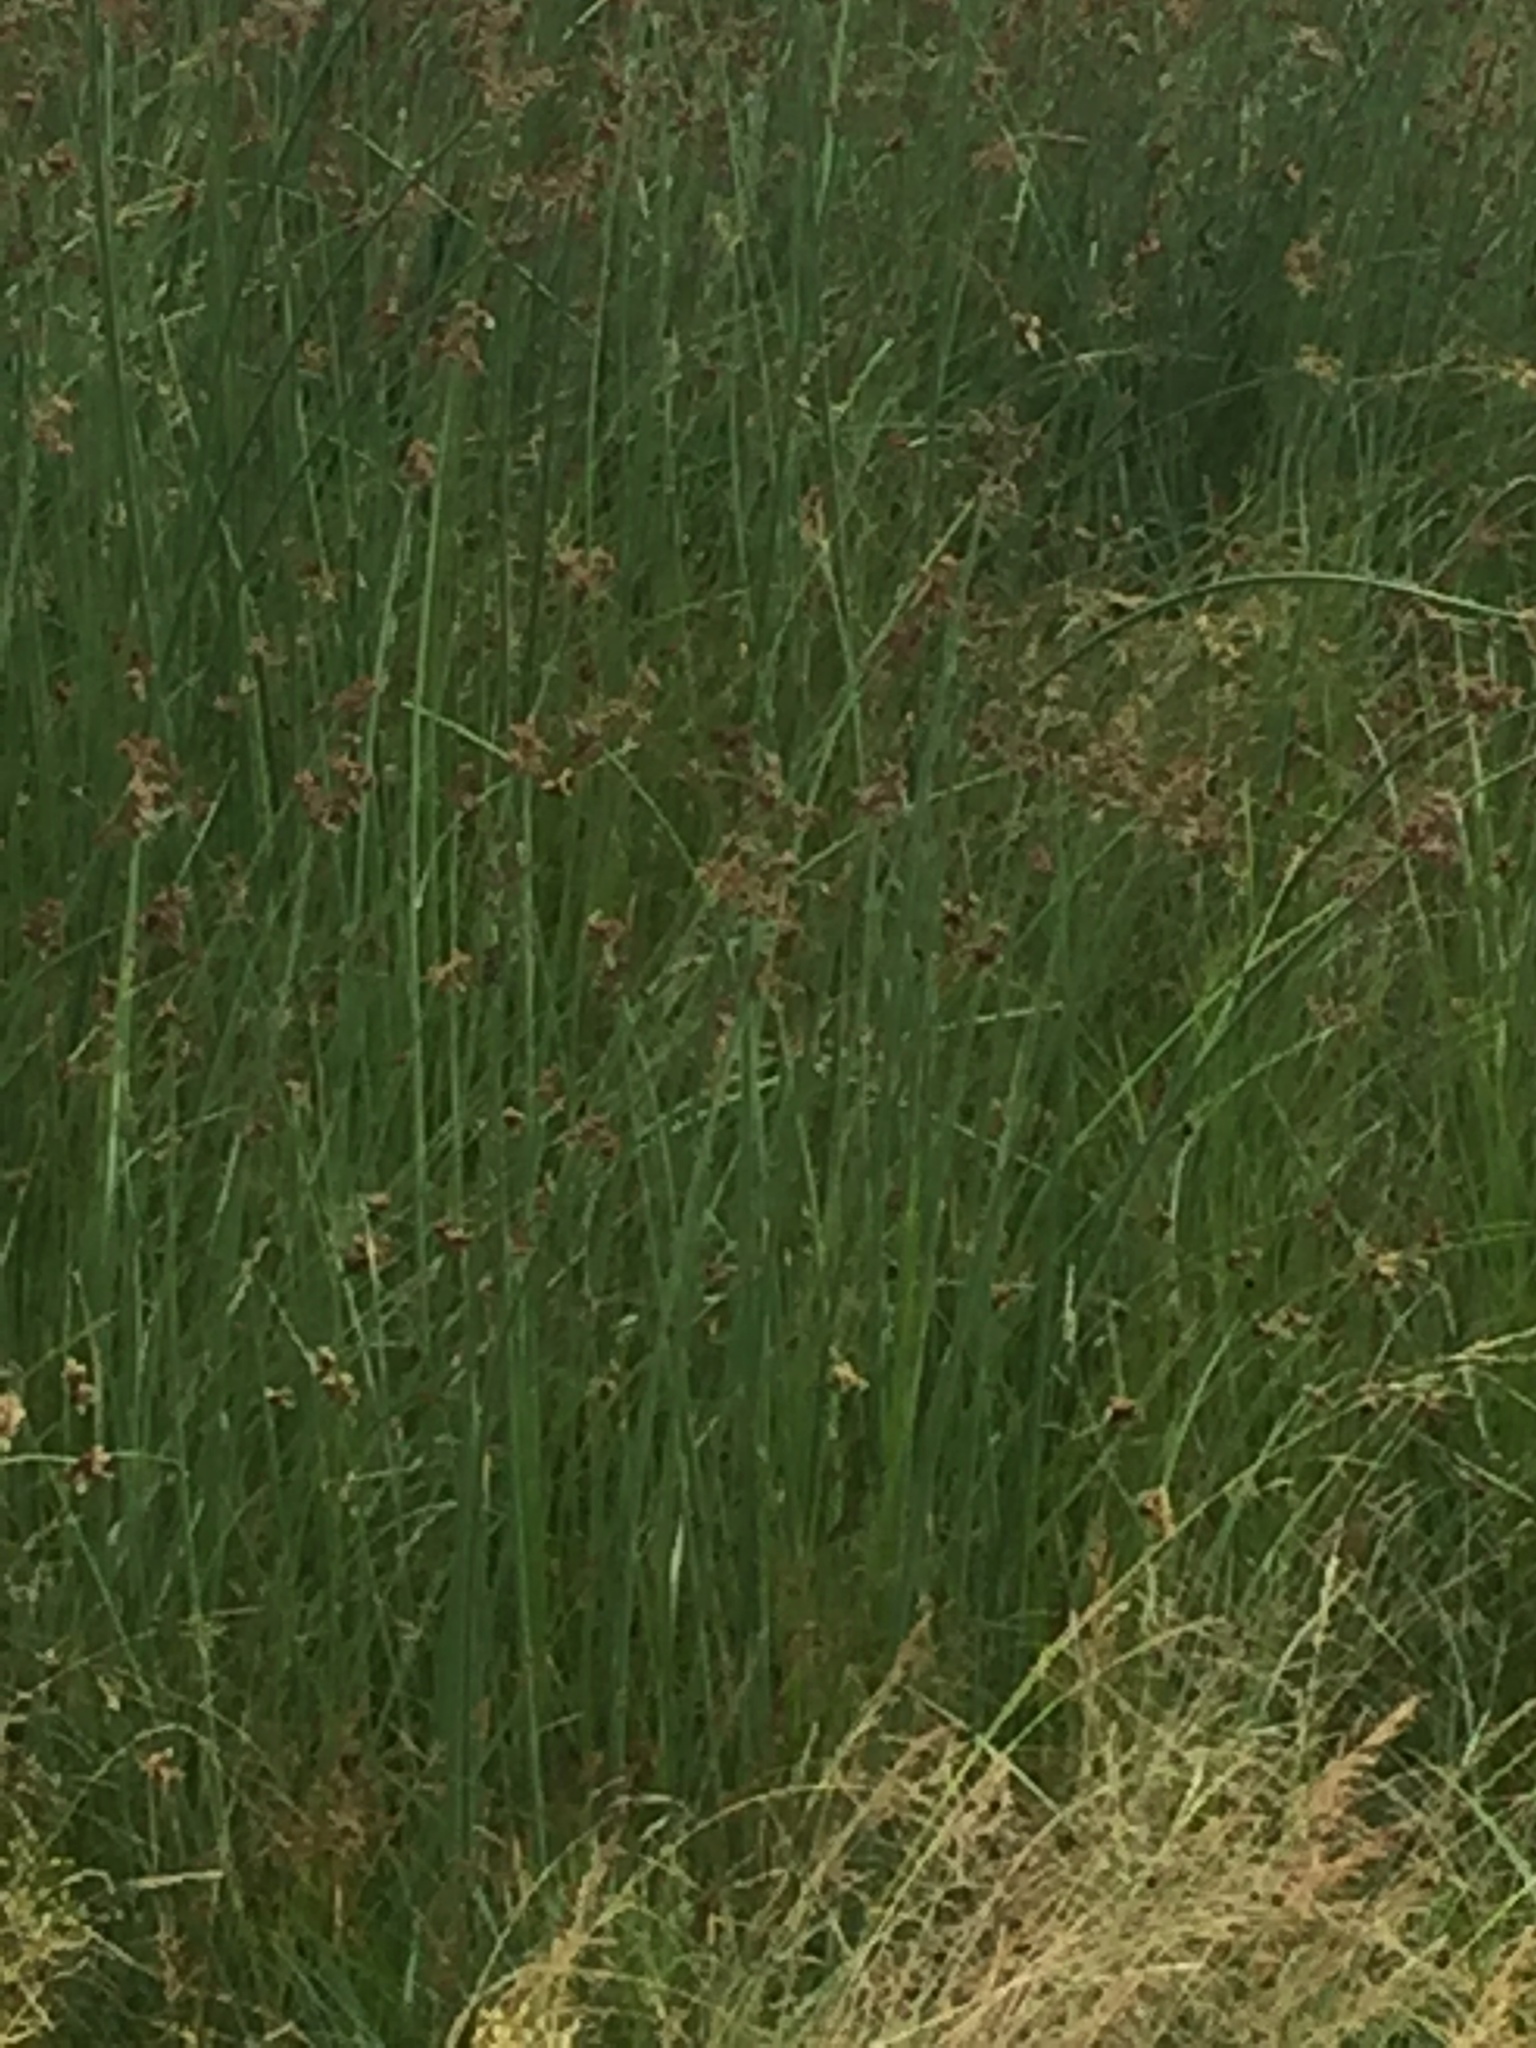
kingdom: Plantae
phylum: Tracheophyta
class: Liliopsida
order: Poales
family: Cyperaceae
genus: Schoenoplectus
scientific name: Schoenoplectus lacustris
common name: Common club-rush
